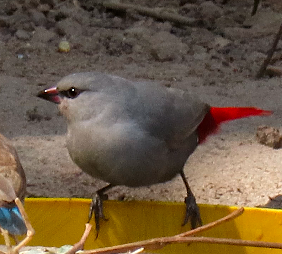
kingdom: Animalia
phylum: Chordata
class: Aves
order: Passeriformes
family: Estrildidae
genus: Estrilda
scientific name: Estrilda caerulescens
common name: Lavender waxbill
